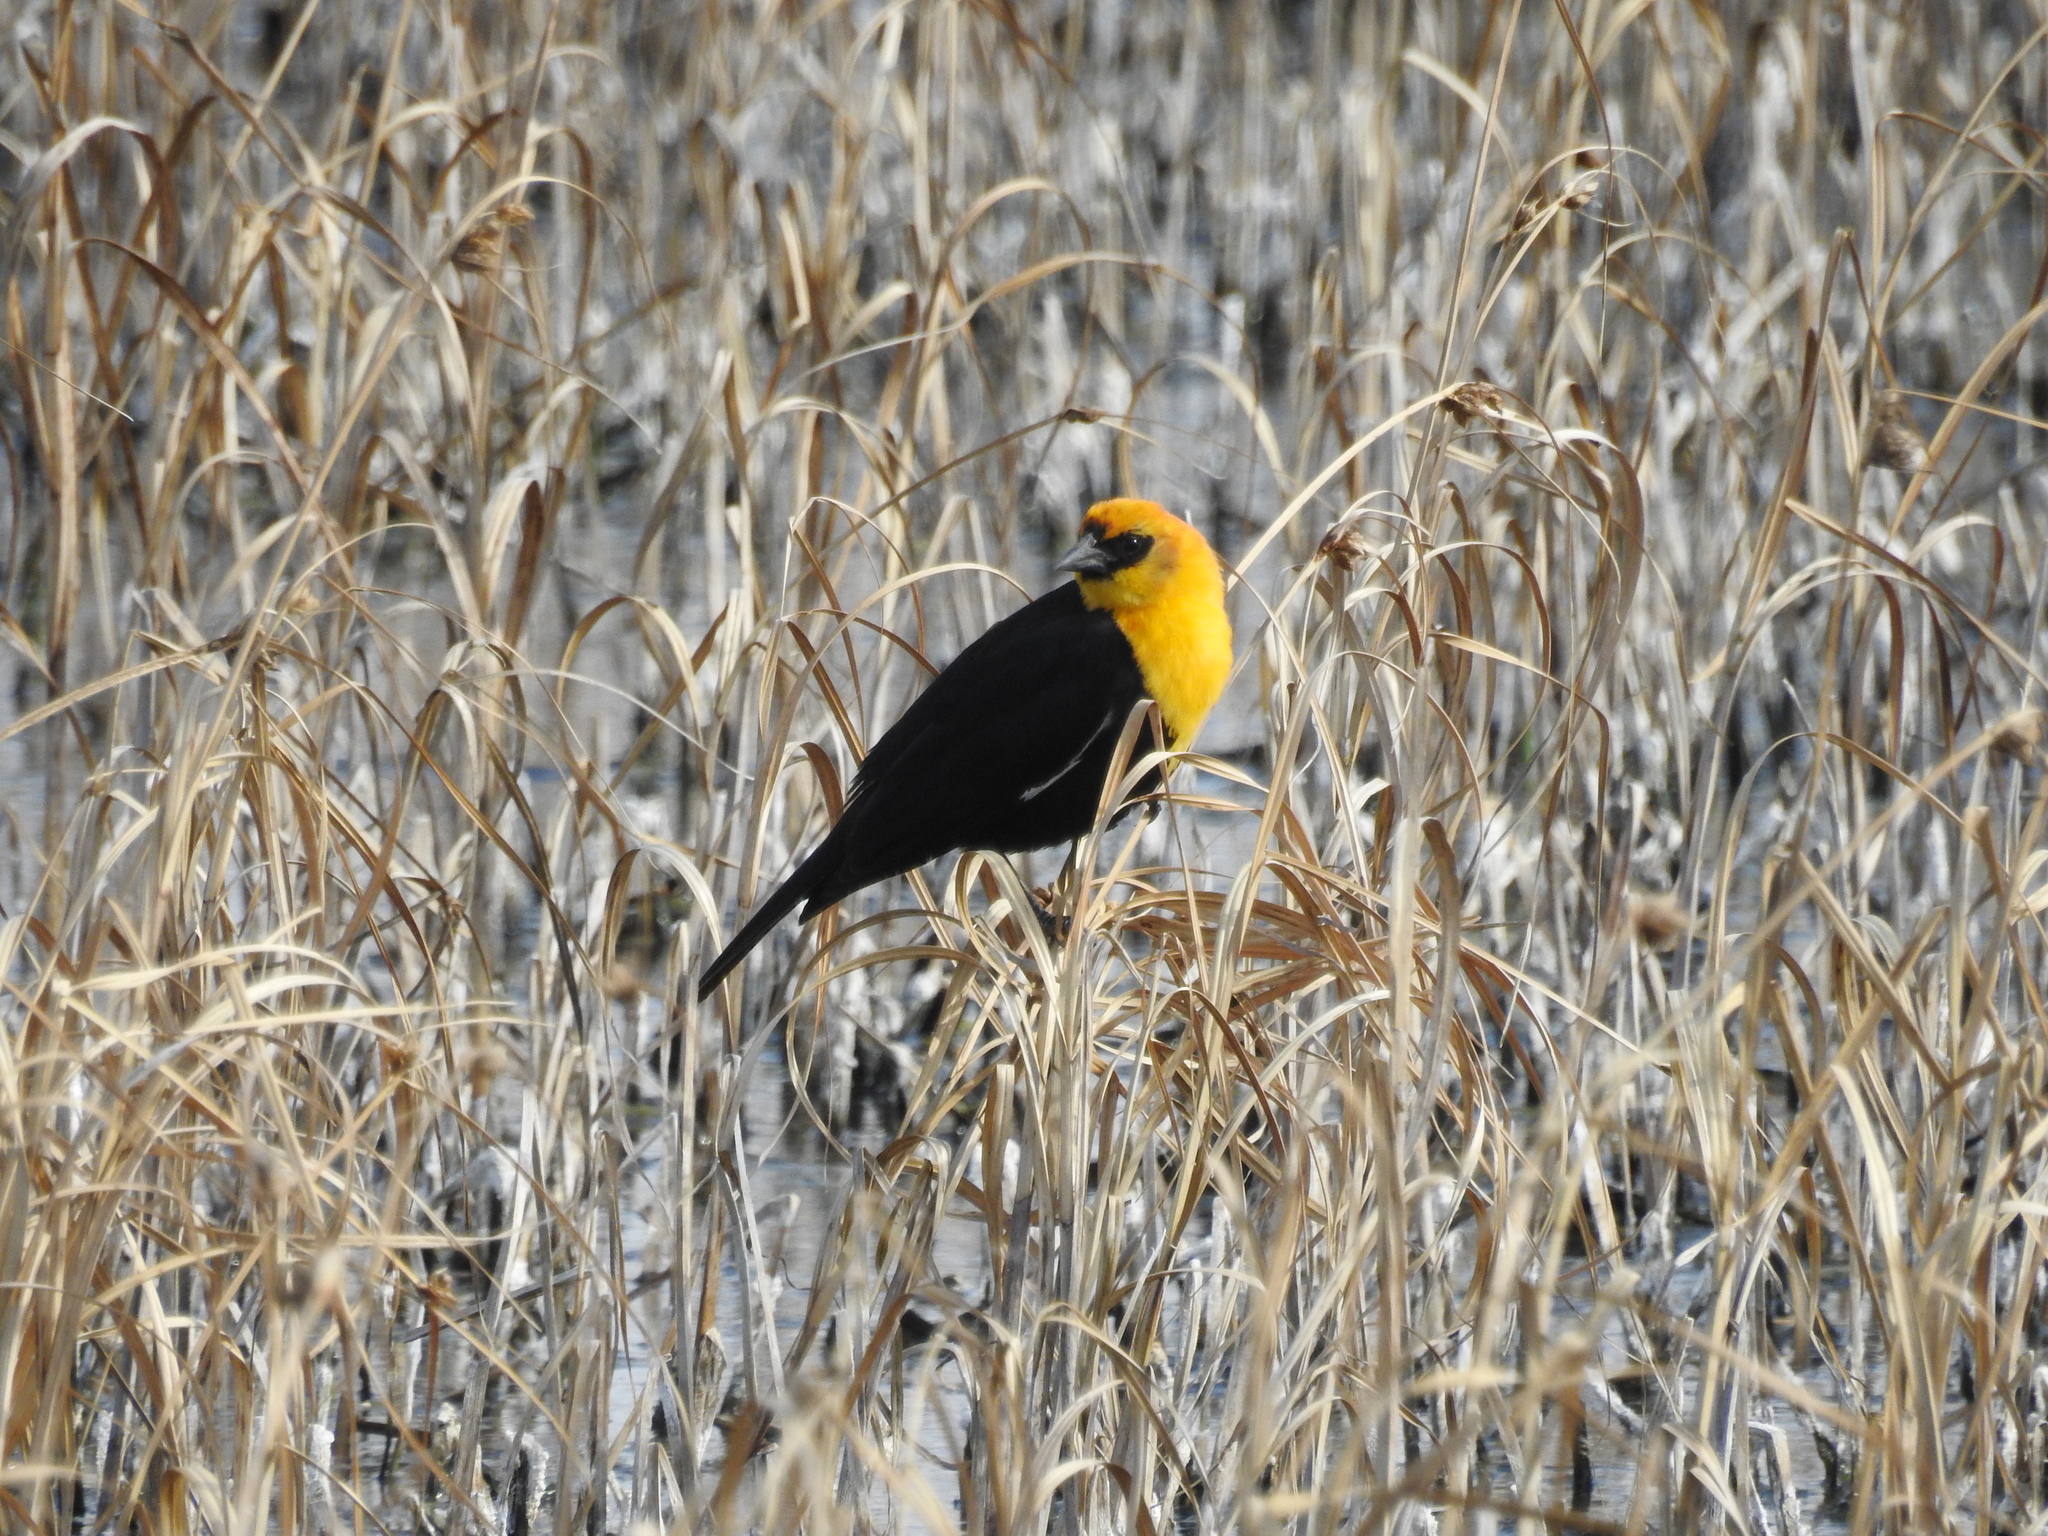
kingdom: Animalia
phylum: Chordata
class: Aves
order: Passeriformes
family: Icteridae
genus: Xanthocephalus
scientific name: Xanthocephalus xanthocephalus
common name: Yellow-headed blackbird
